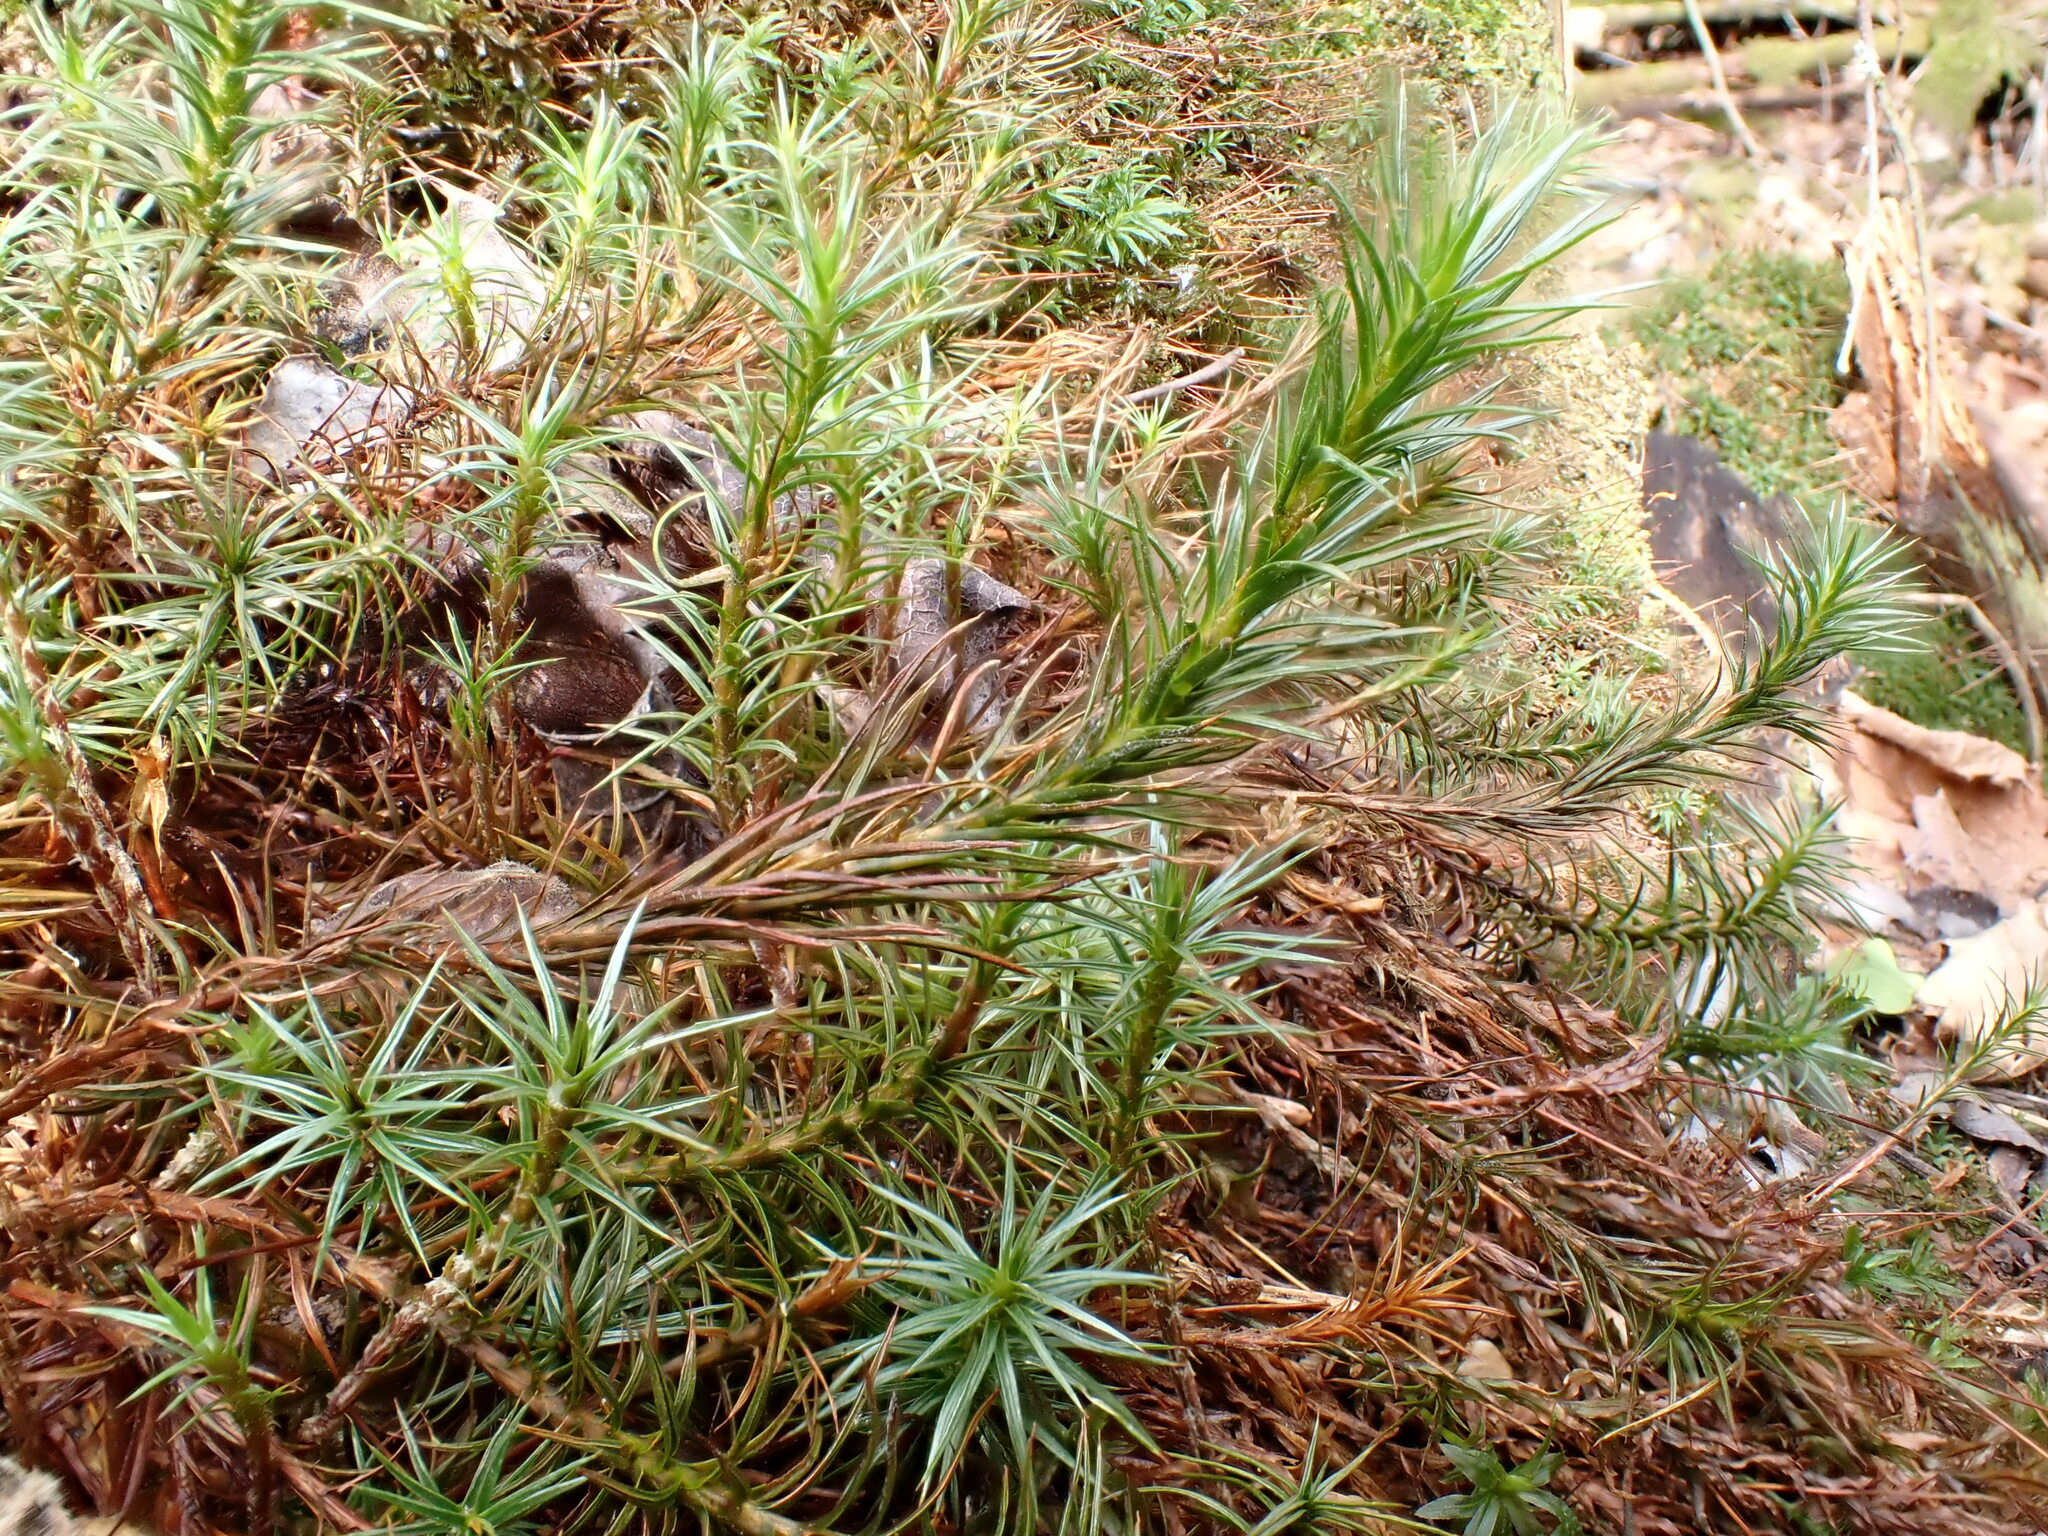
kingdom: Plantae
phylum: Bryophyta
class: Polytrichopsida
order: Polytrichales
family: Polytrichaceae
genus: Polytrichum
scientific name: Polytrichum juniperinum
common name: Juniper haircap moss
